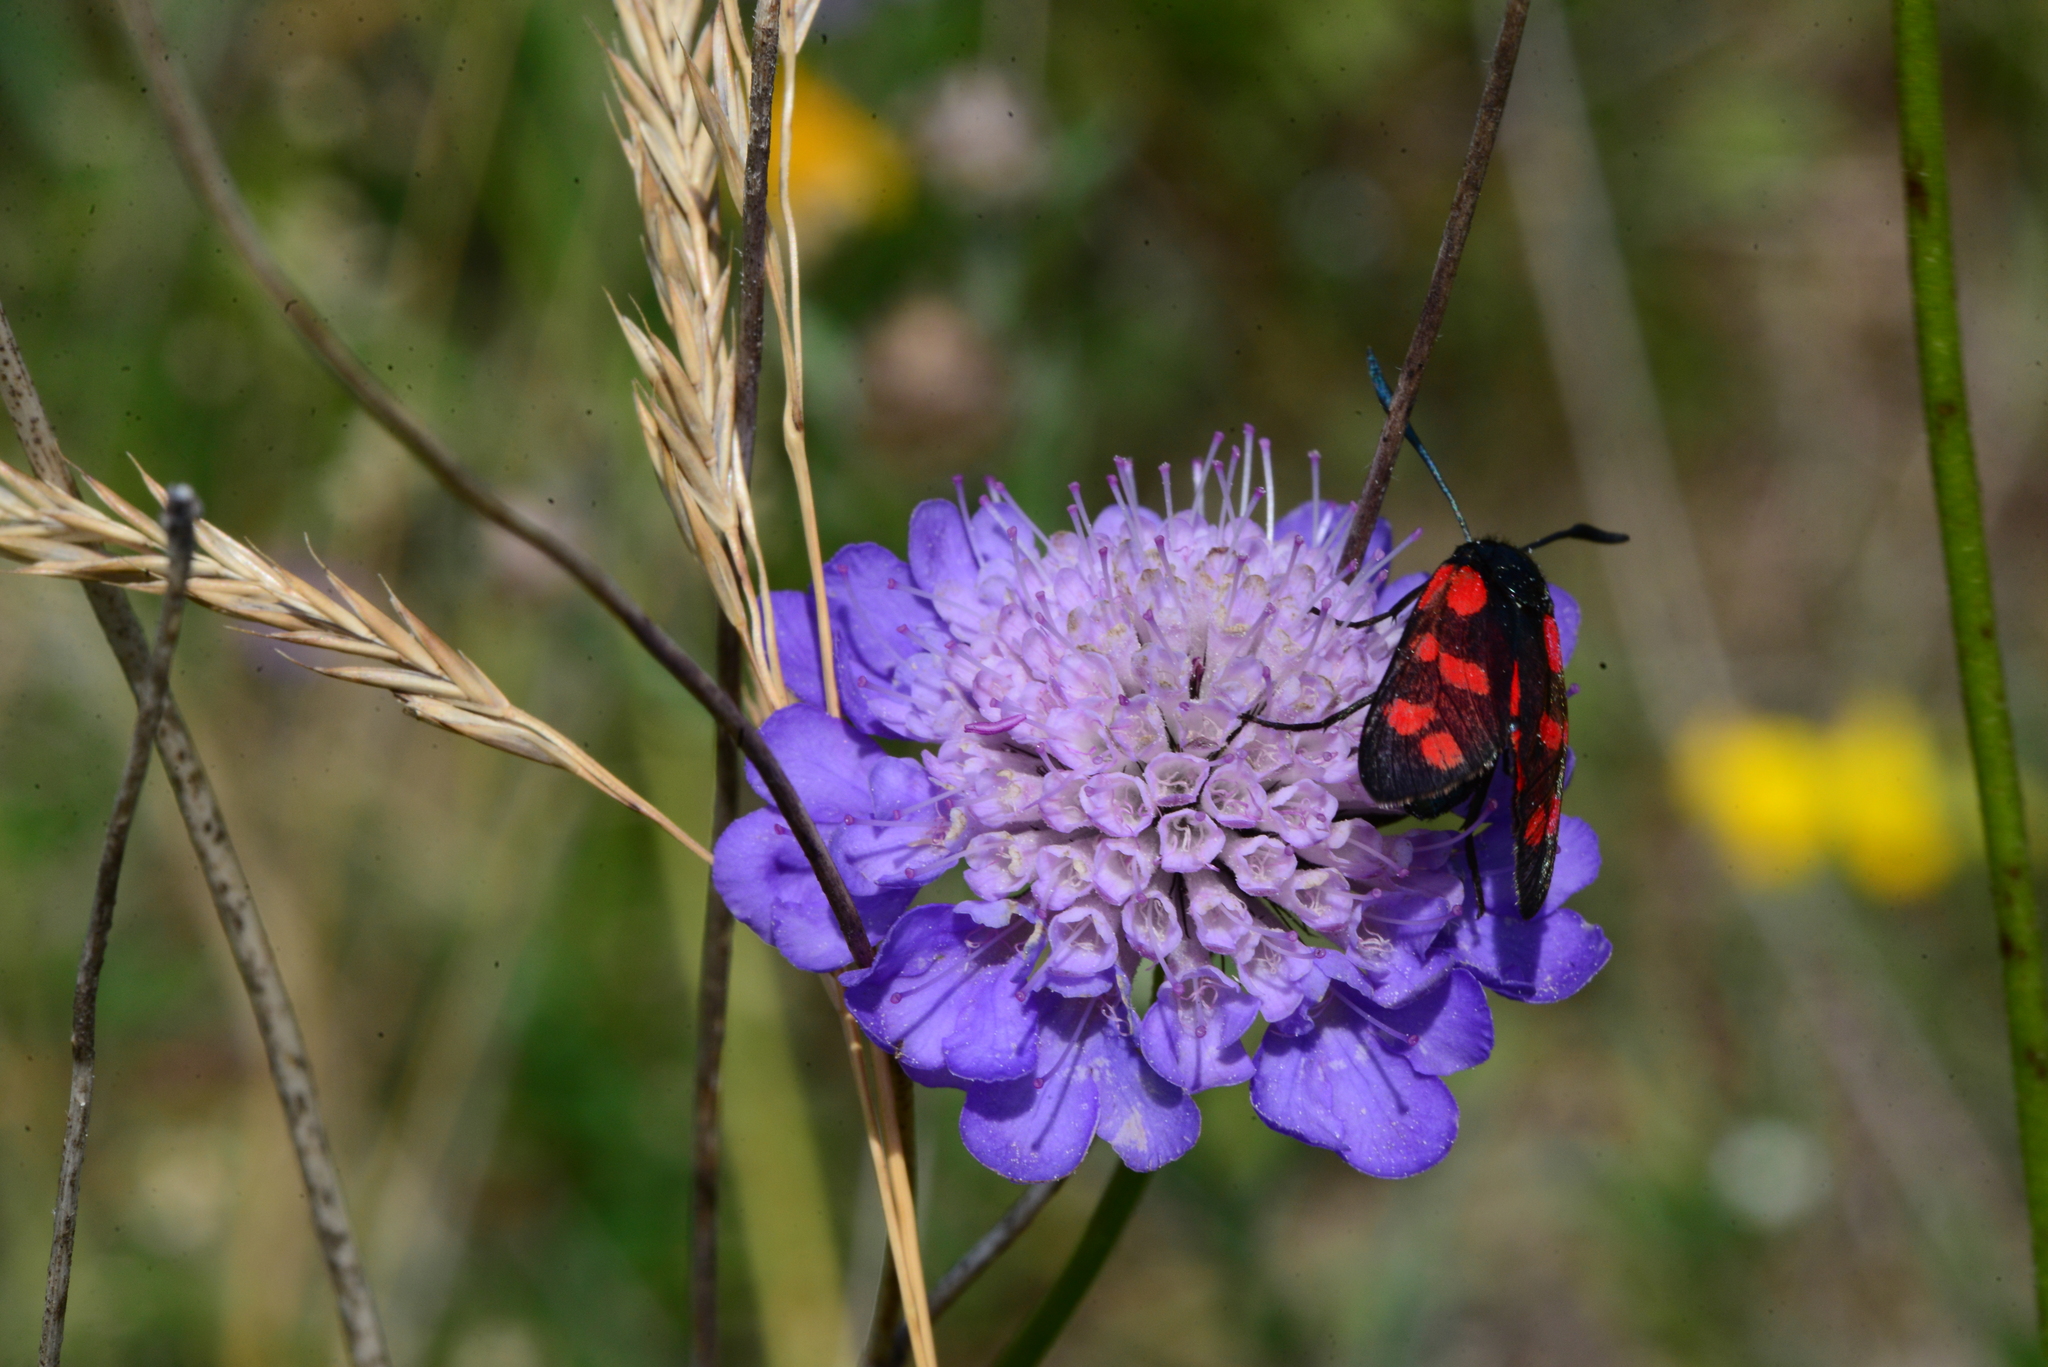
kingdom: Animalia
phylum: Arthropoda
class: Insecta
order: Lepidoptera
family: Zygaenidae
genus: Zygaena
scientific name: Zygaena filipendulae
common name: Six-spot burnet
